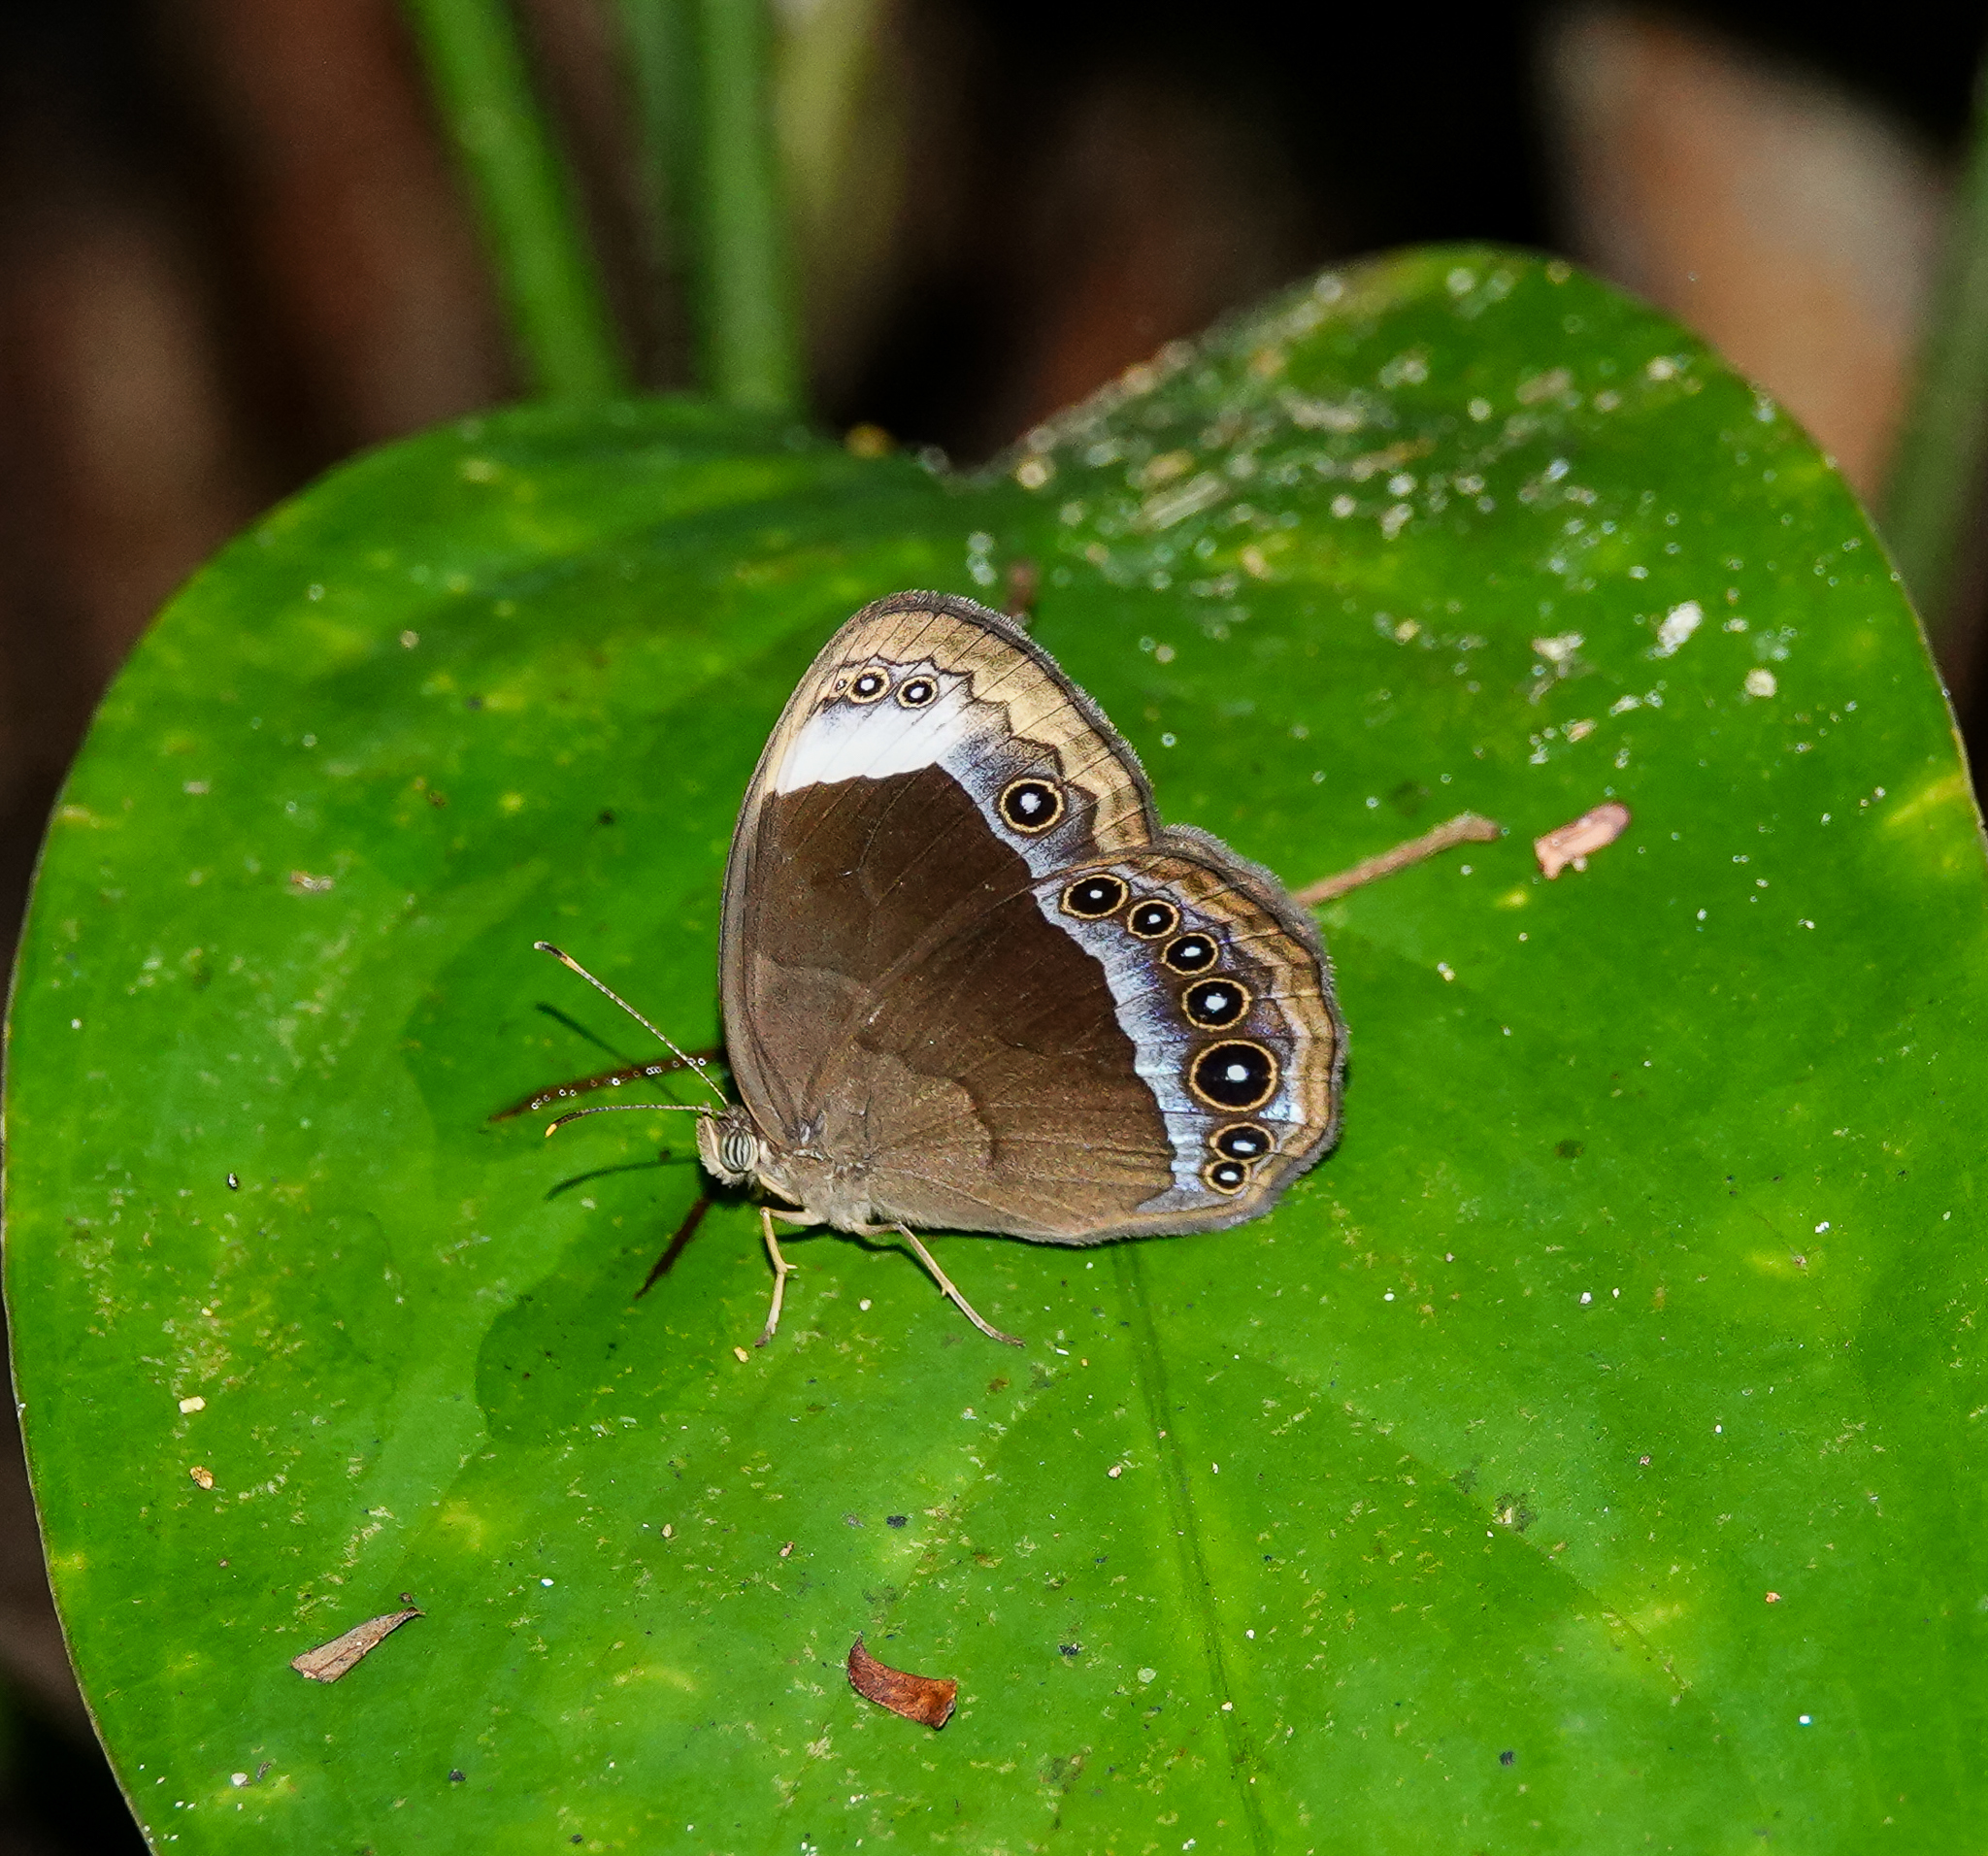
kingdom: Animalia
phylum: Arthropoda
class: Insecta
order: Lepidoptera
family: Nymphalidae
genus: Mycalesis
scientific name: Mycalesis anaxias
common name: White-bar bushbrown
